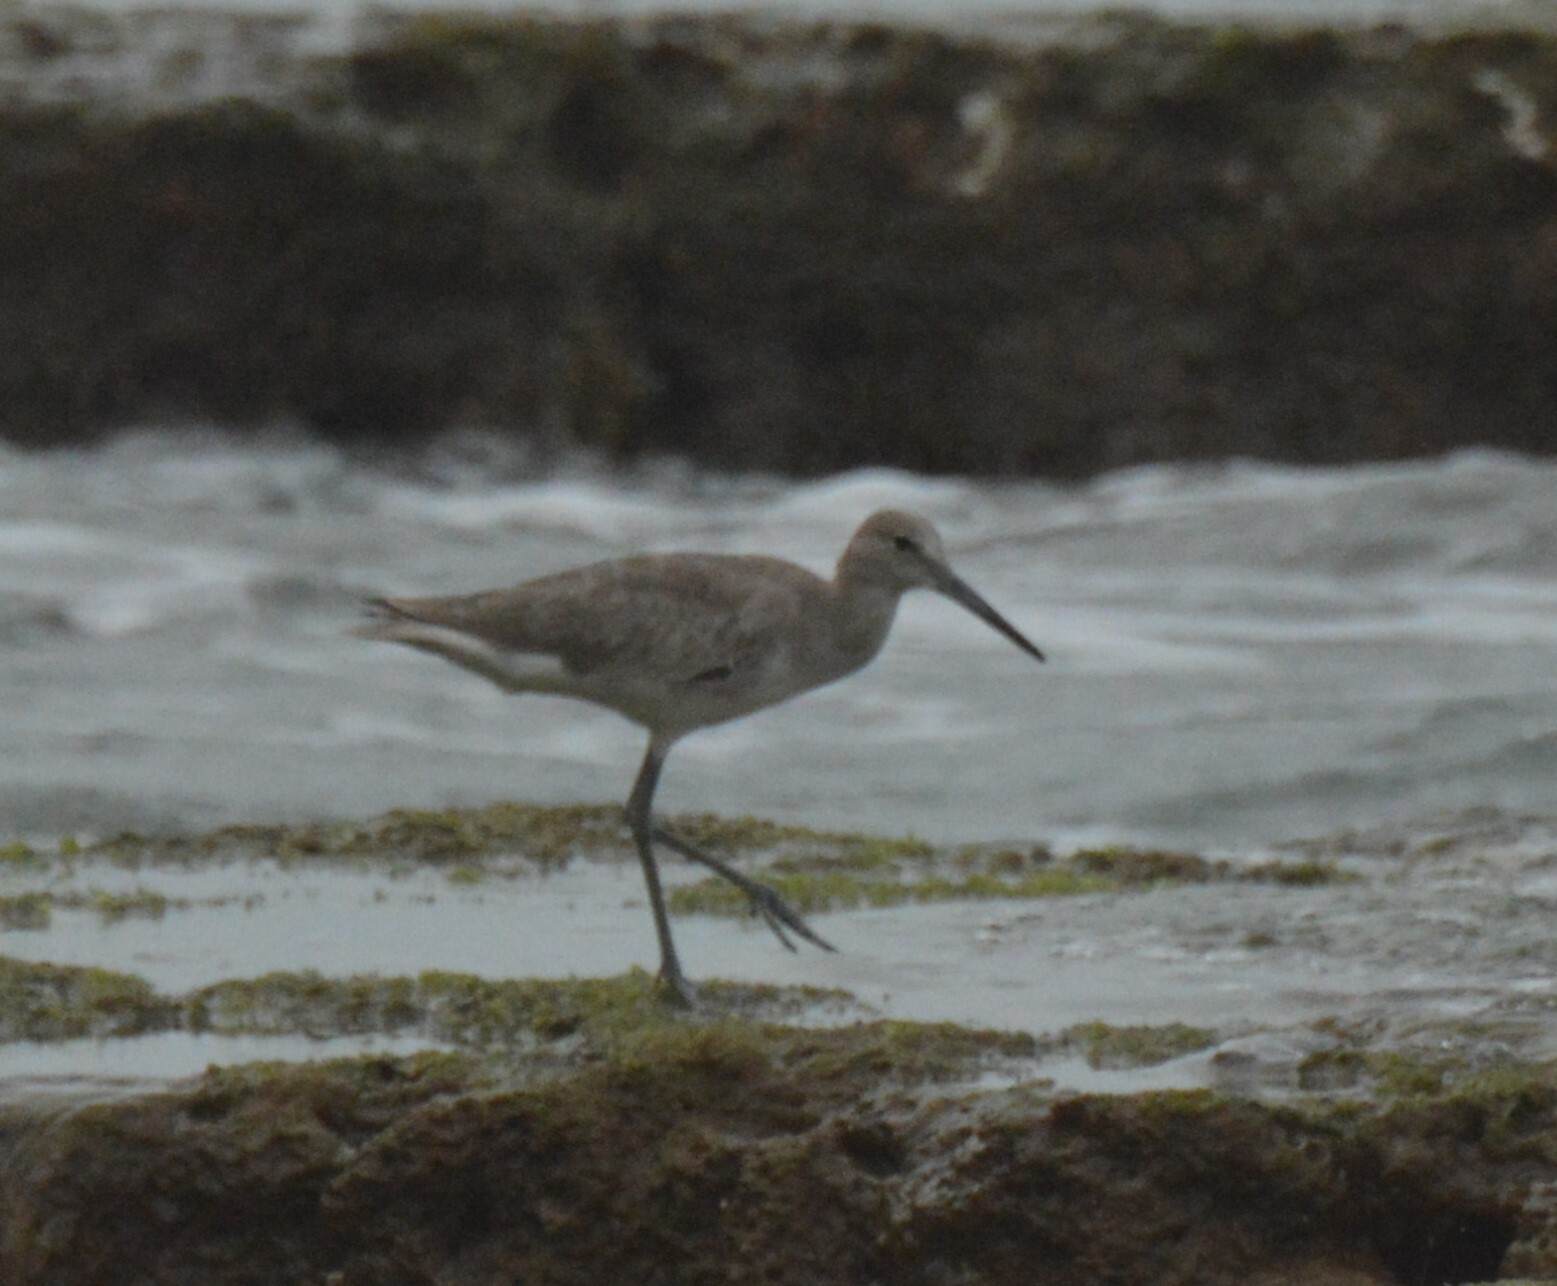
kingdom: Animalia
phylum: Chordata
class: Aves
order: Charadriiformes
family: Scolopacidae
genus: Tringa
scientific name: Tringa semipalmata
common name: Willet
